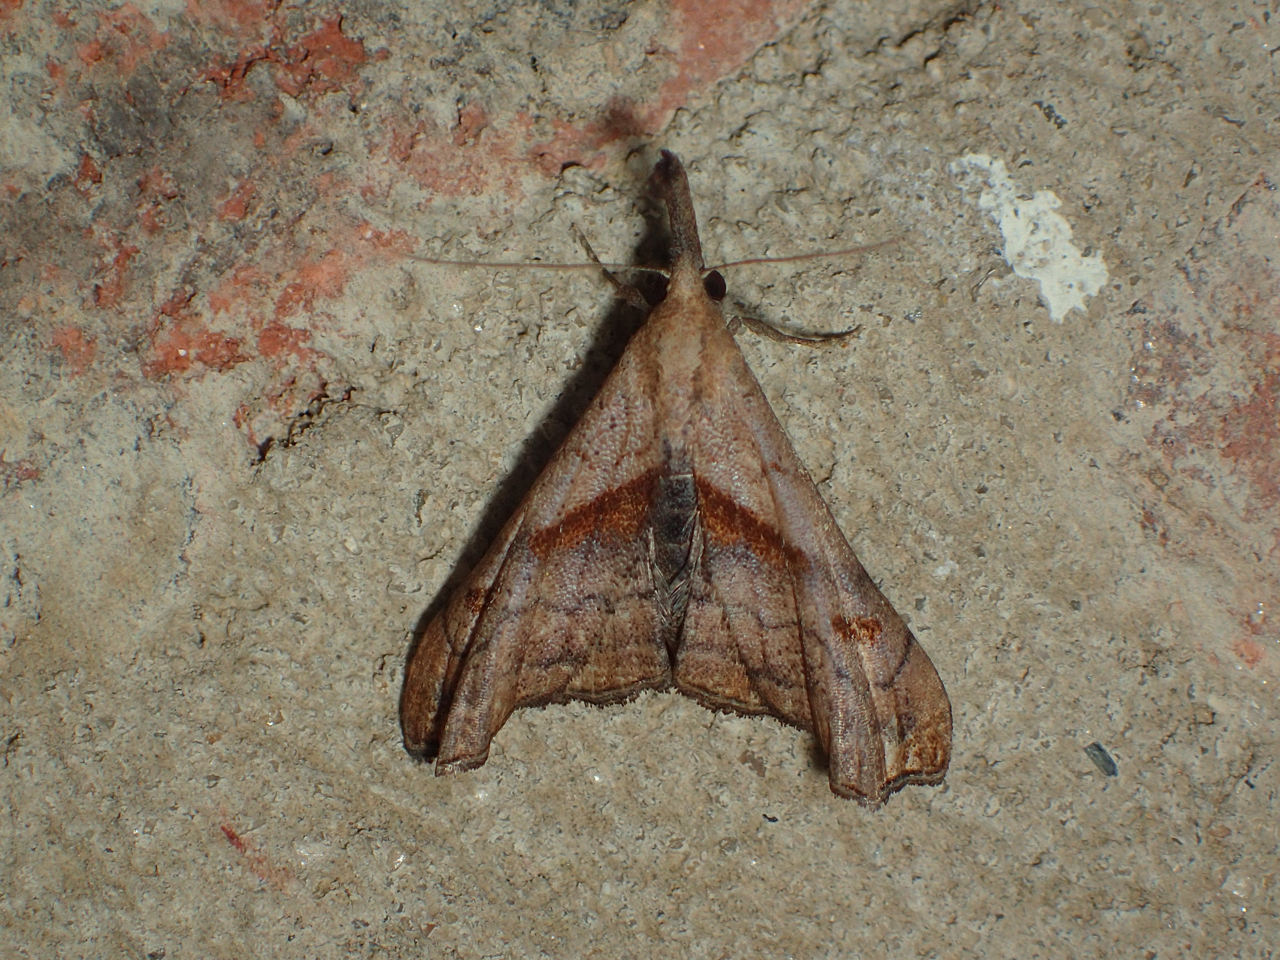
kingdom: Animalia
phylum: Arthropoda
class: Insecta
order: Lepidoptera
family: Erebidae
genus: Palthis
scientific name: Palthis angulalis
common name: Dark-spotted palthis moth
